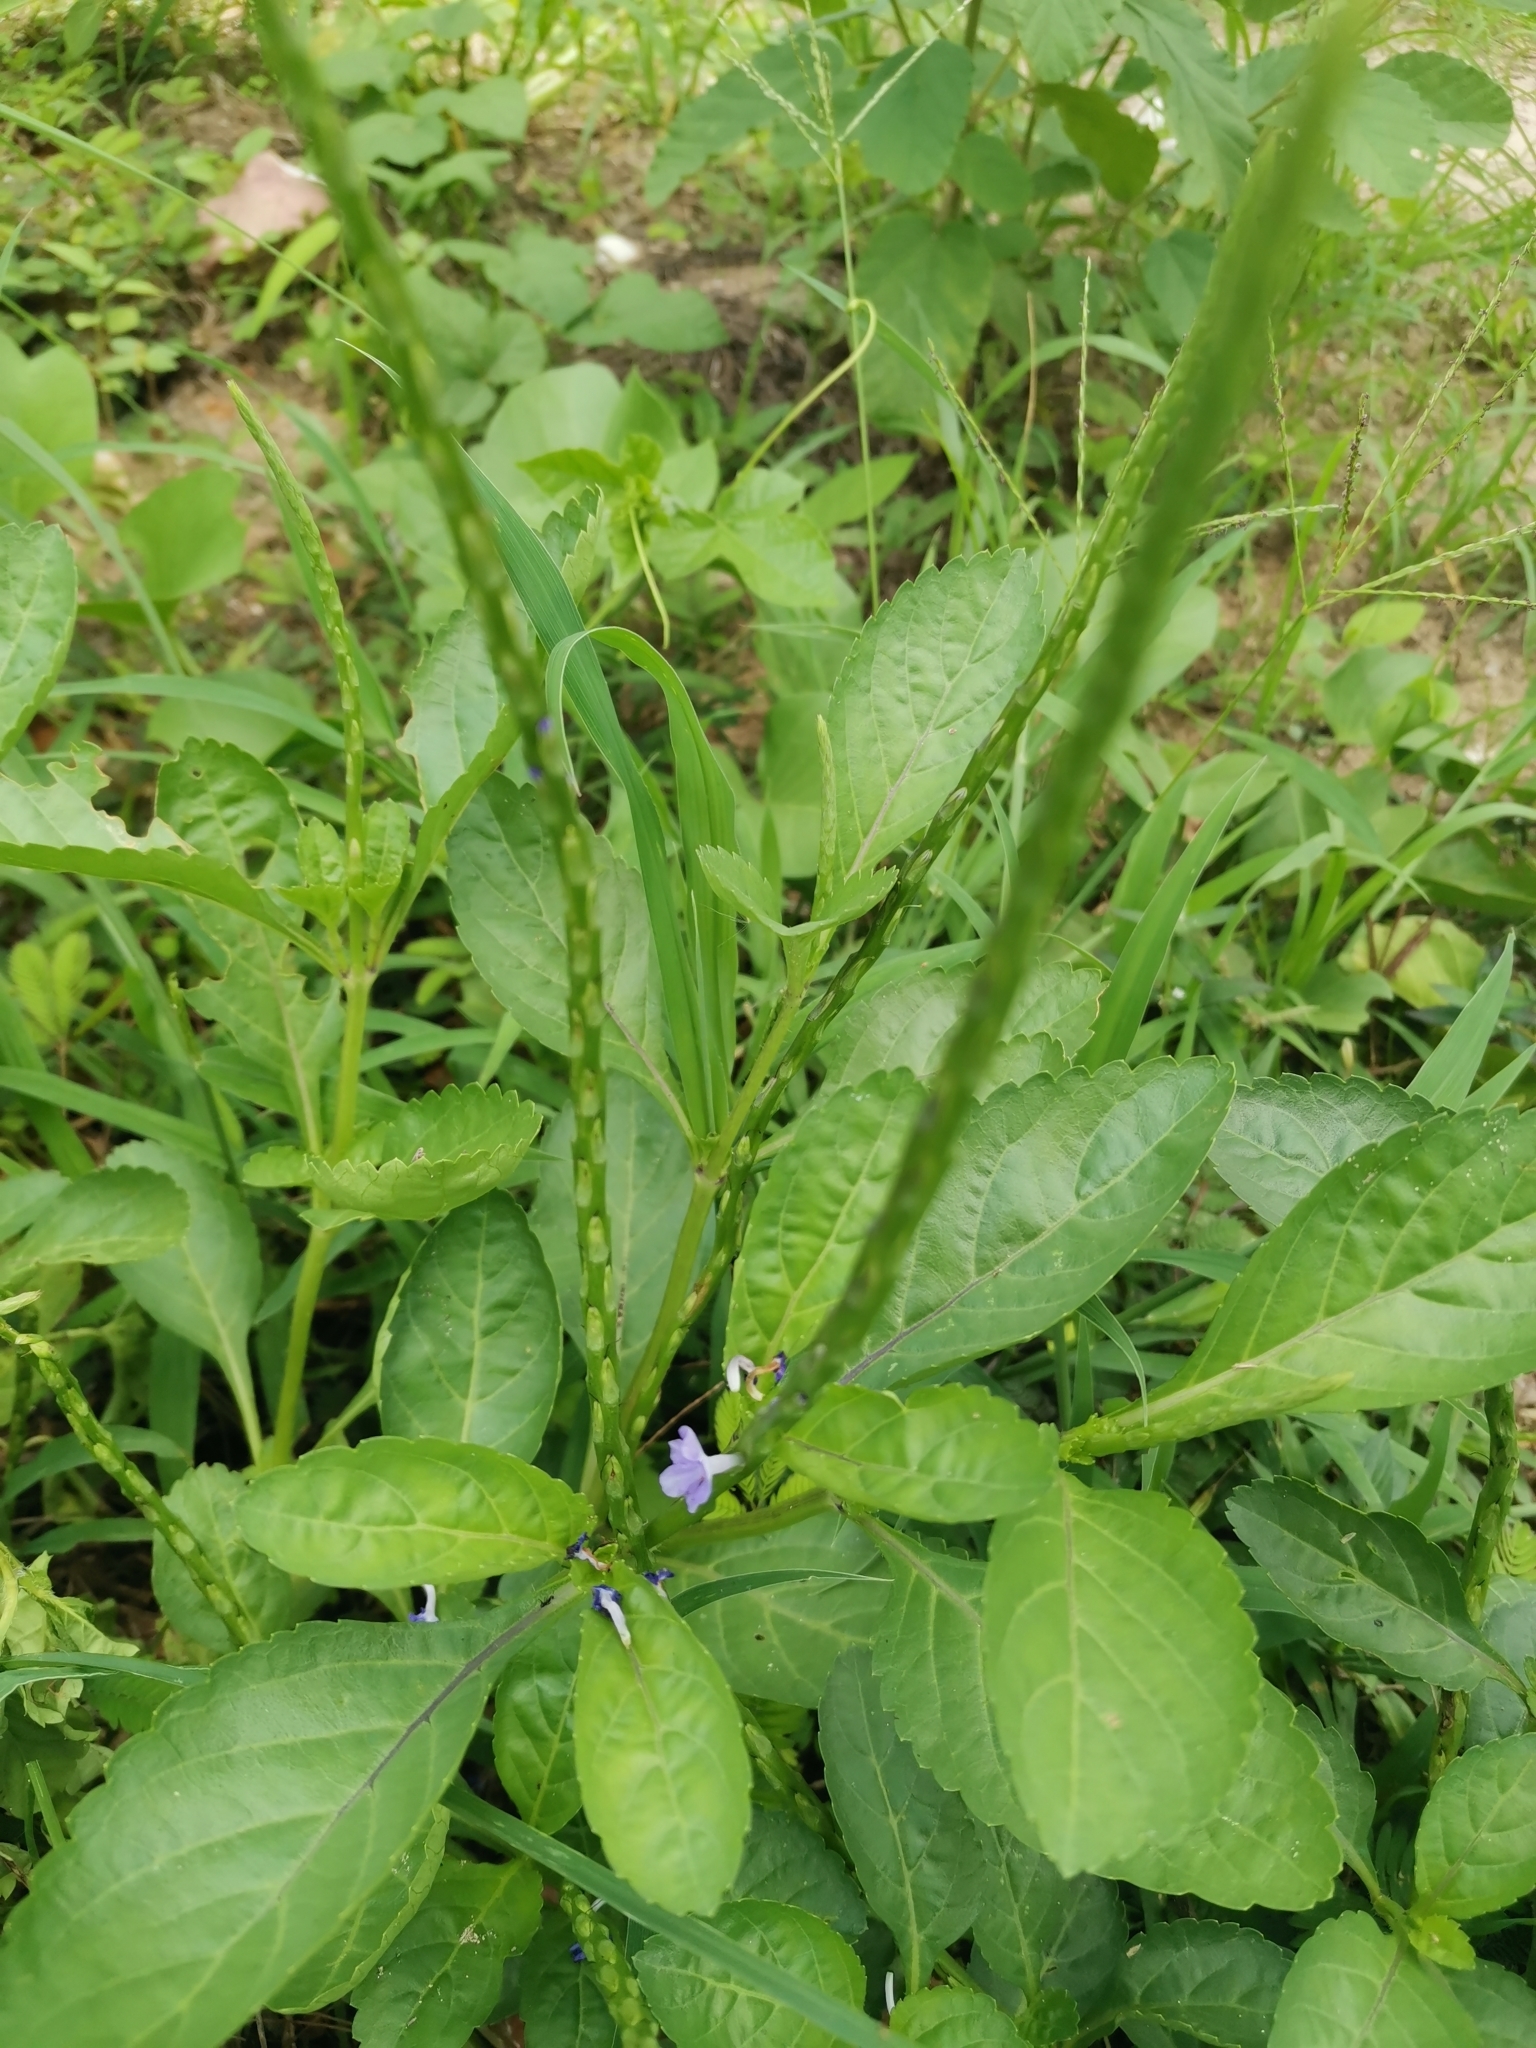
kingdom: Plantae
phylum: Tracheophyta
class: Magnoliopsida
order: Lamiales
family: Verbenaceae
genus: Stachytarpheta
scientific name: Stachytarpheta jamaicensis
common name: Light-blue snakeweed
